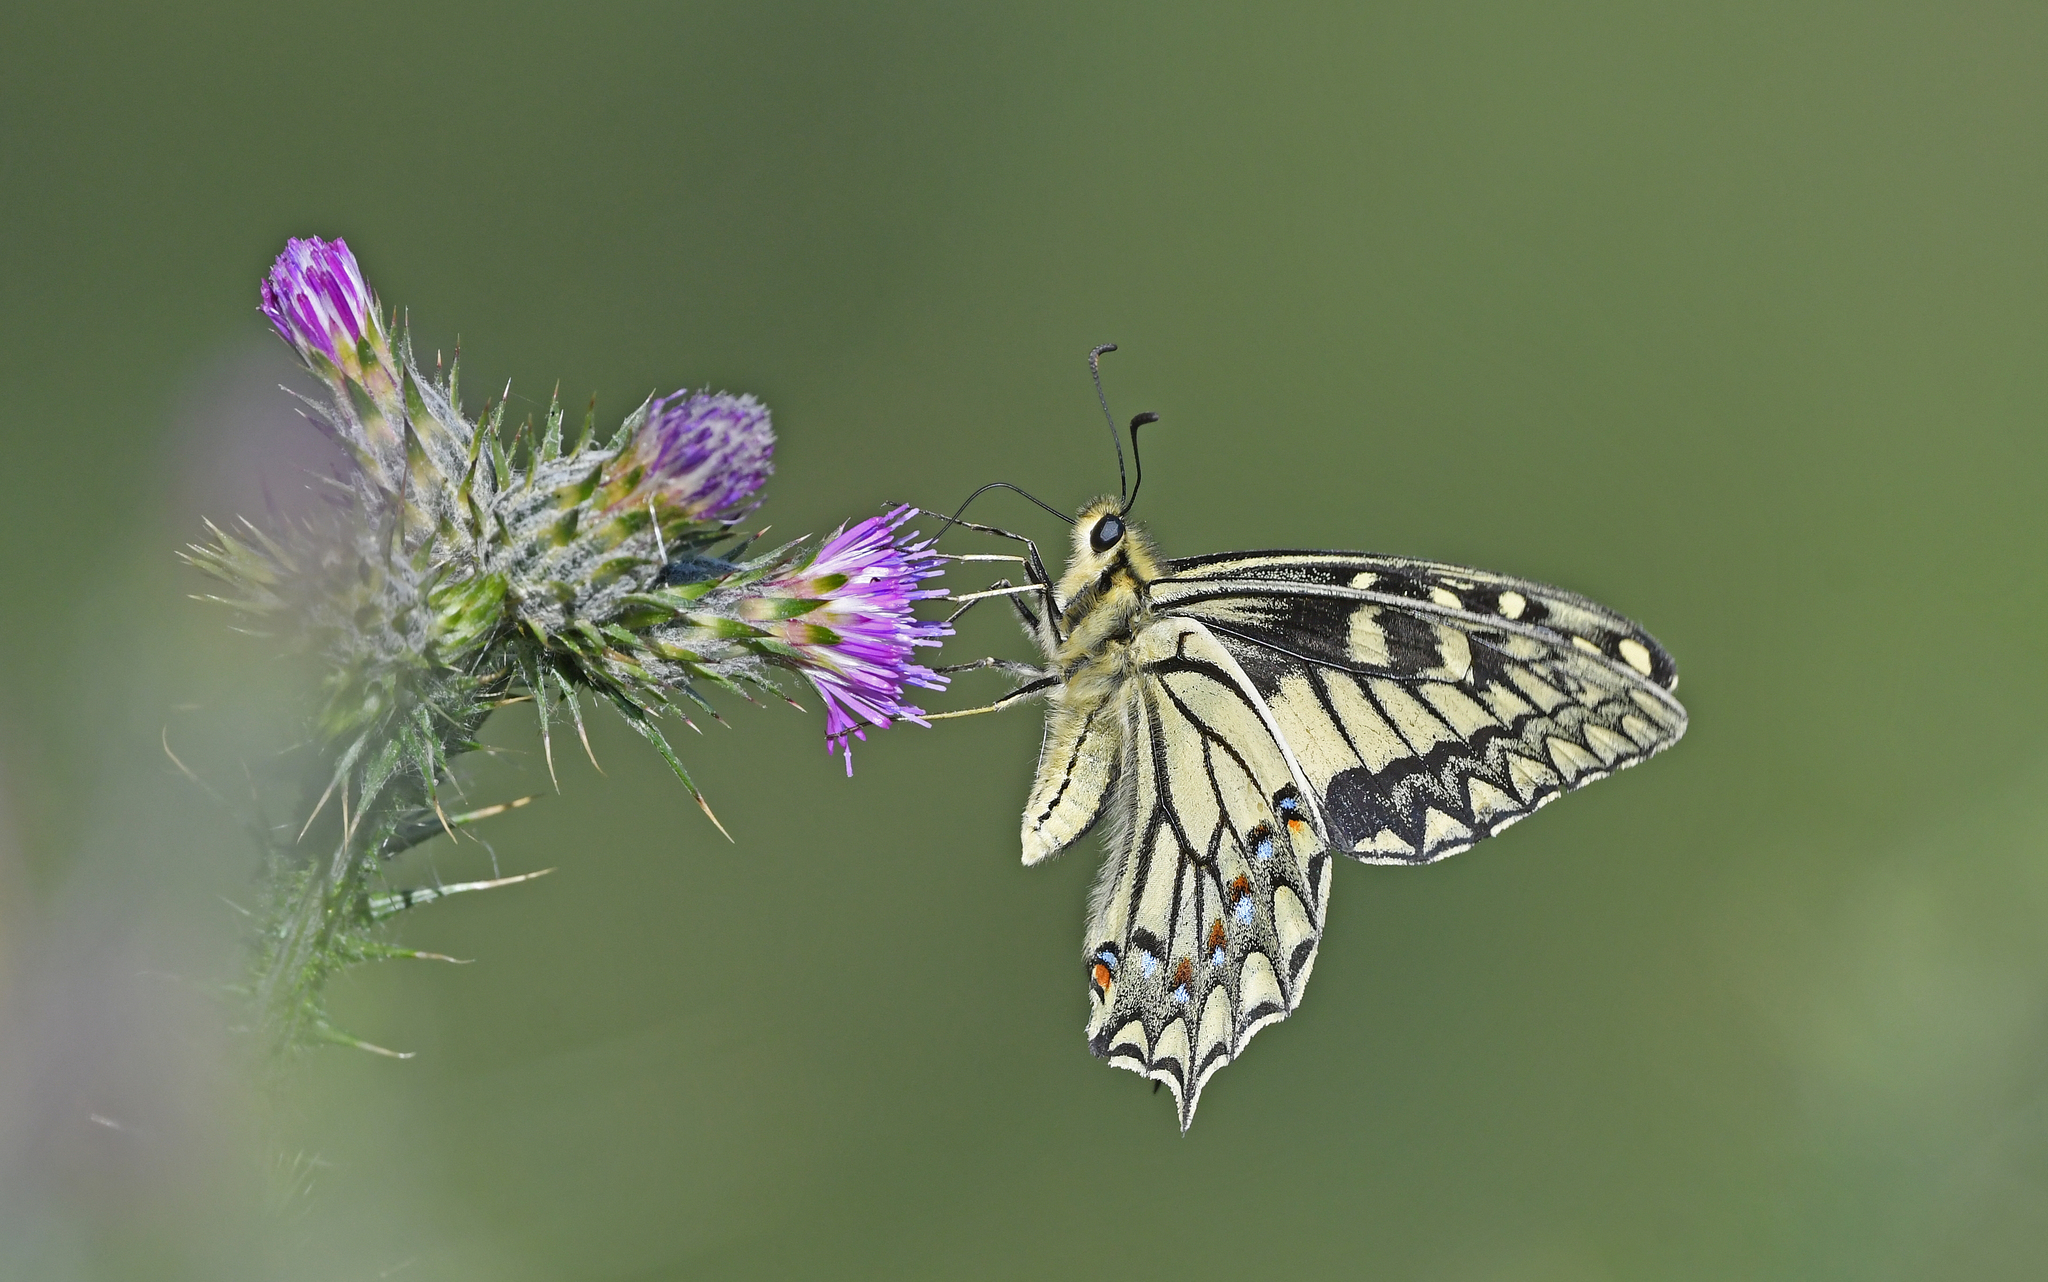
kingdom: Animalia
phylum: Arthropoda
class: Insecta
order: Lepidoptera
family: Papilionidae
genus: Papilio
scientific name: Papilio hospiton
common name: Corsican swallowtail
